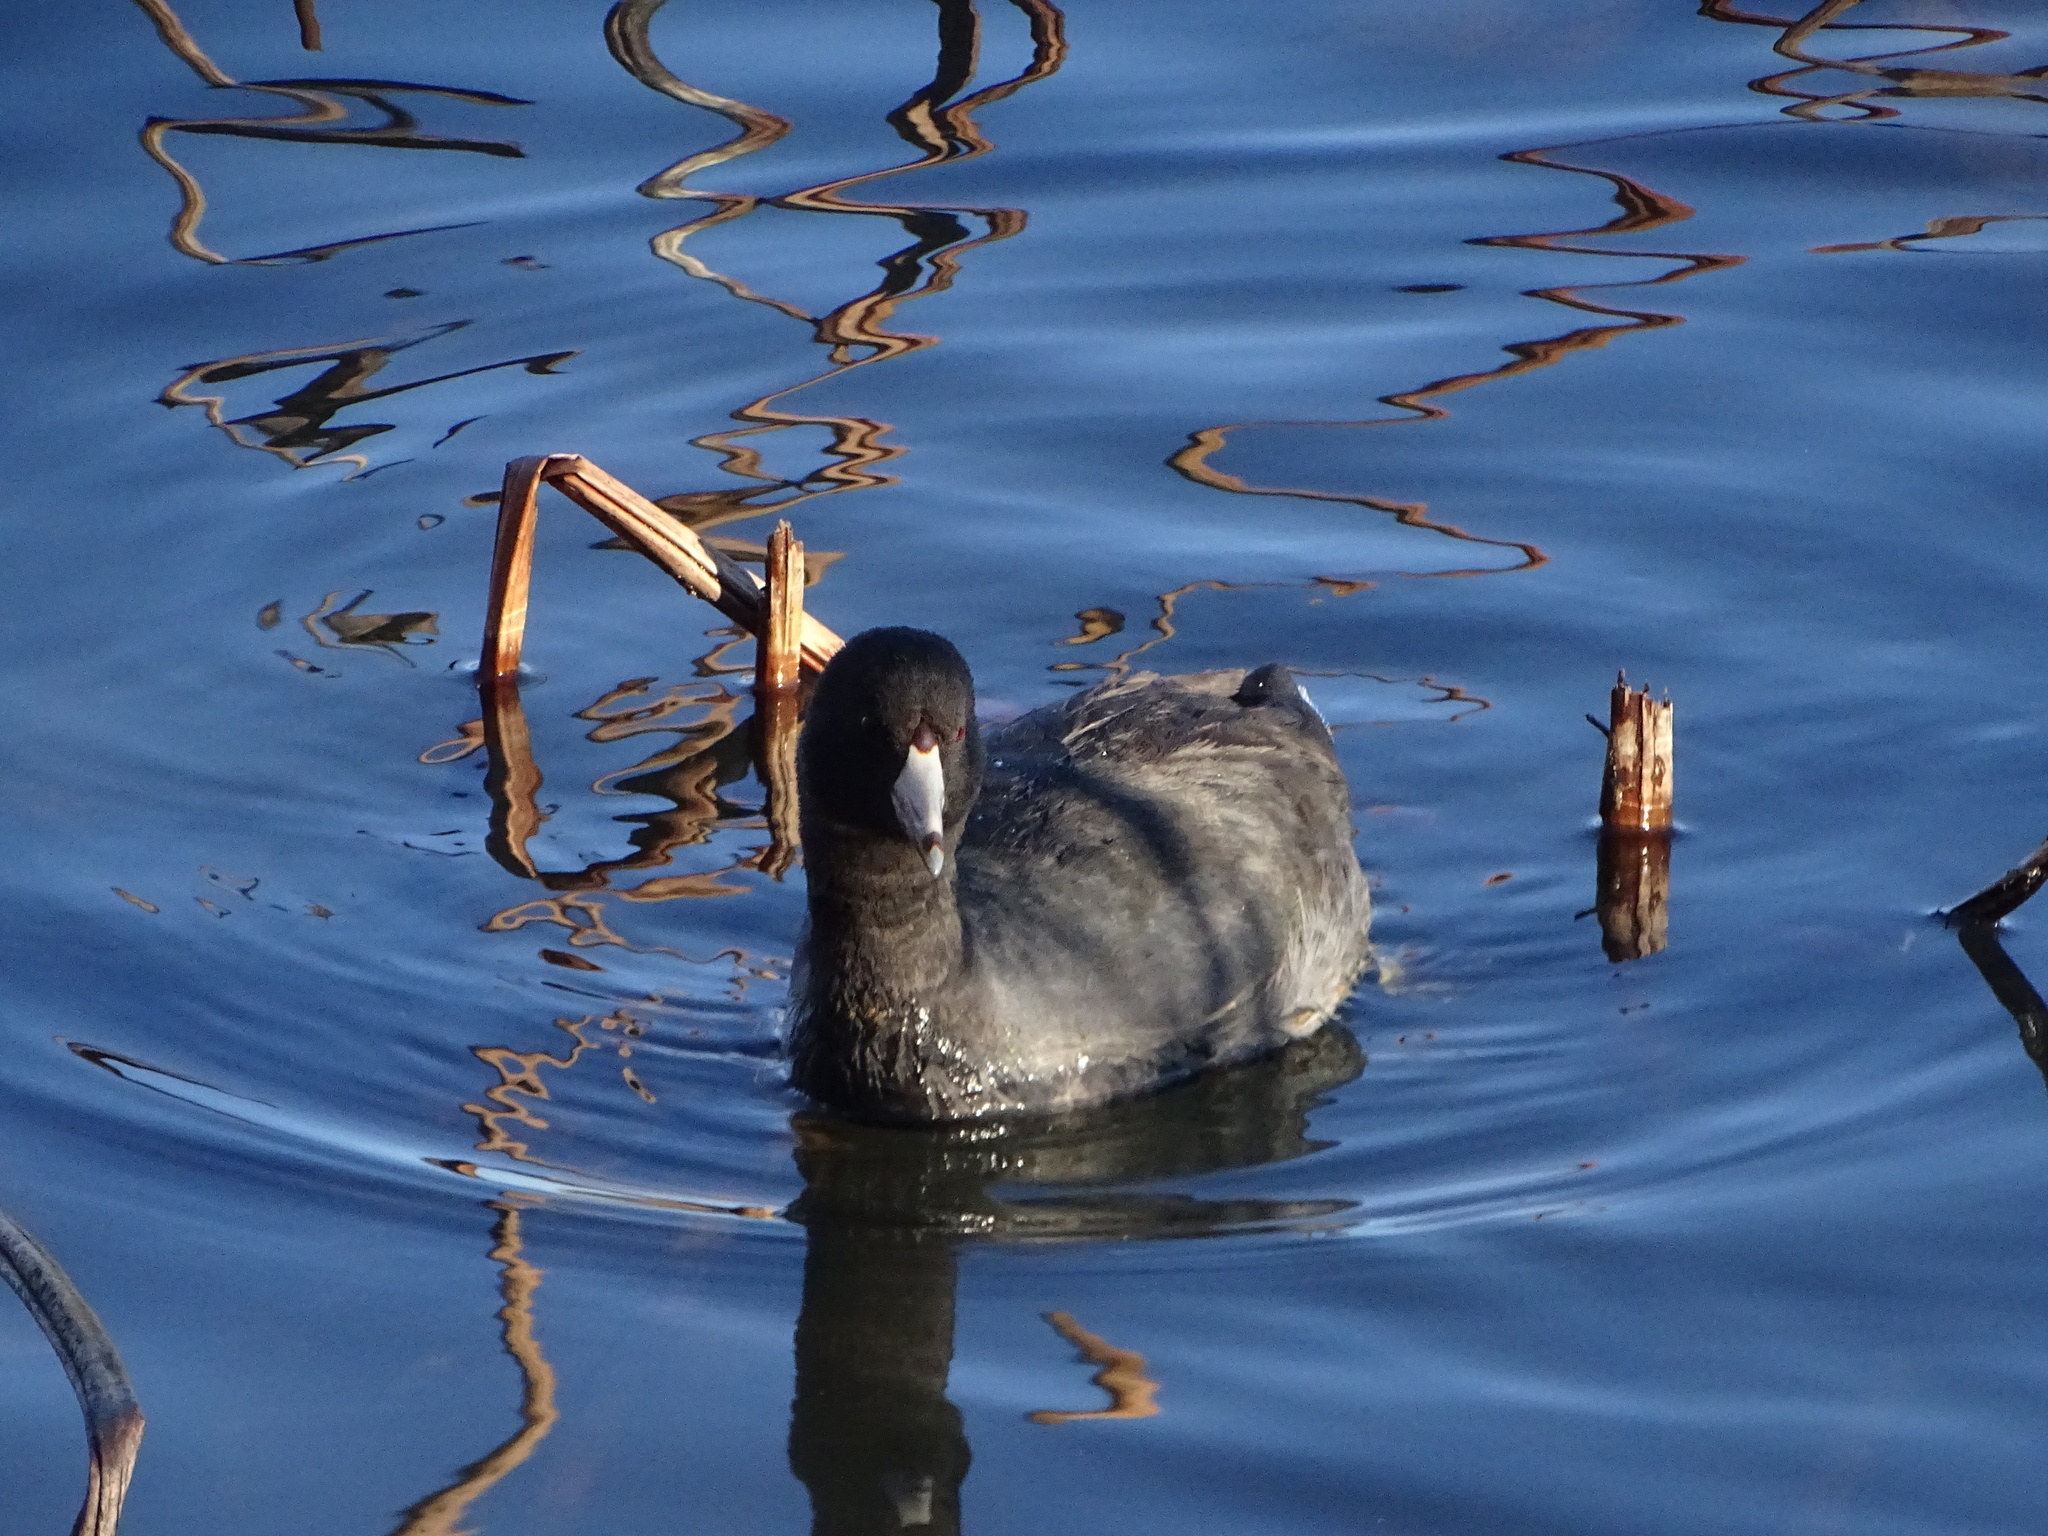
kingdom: Animalia
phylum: Chordata
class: Aves
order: Gruiformes
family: Rallidae
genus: Fulica
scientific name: Fulica americana
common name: American coot
